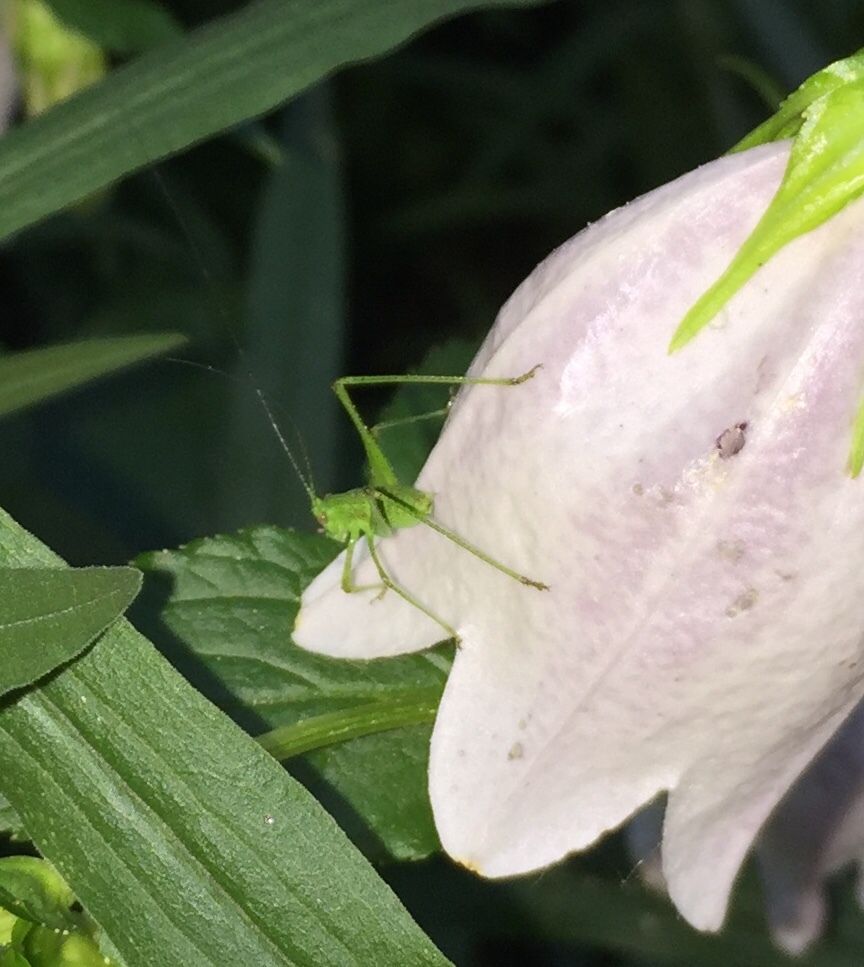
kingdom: Animalia
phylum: Arthropoda
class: Insecta
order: Orthoptera
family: Tettigoniidae
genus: Phaneroptera
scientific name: Phaneroptera nana
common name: Southern sickle bush-cricket
